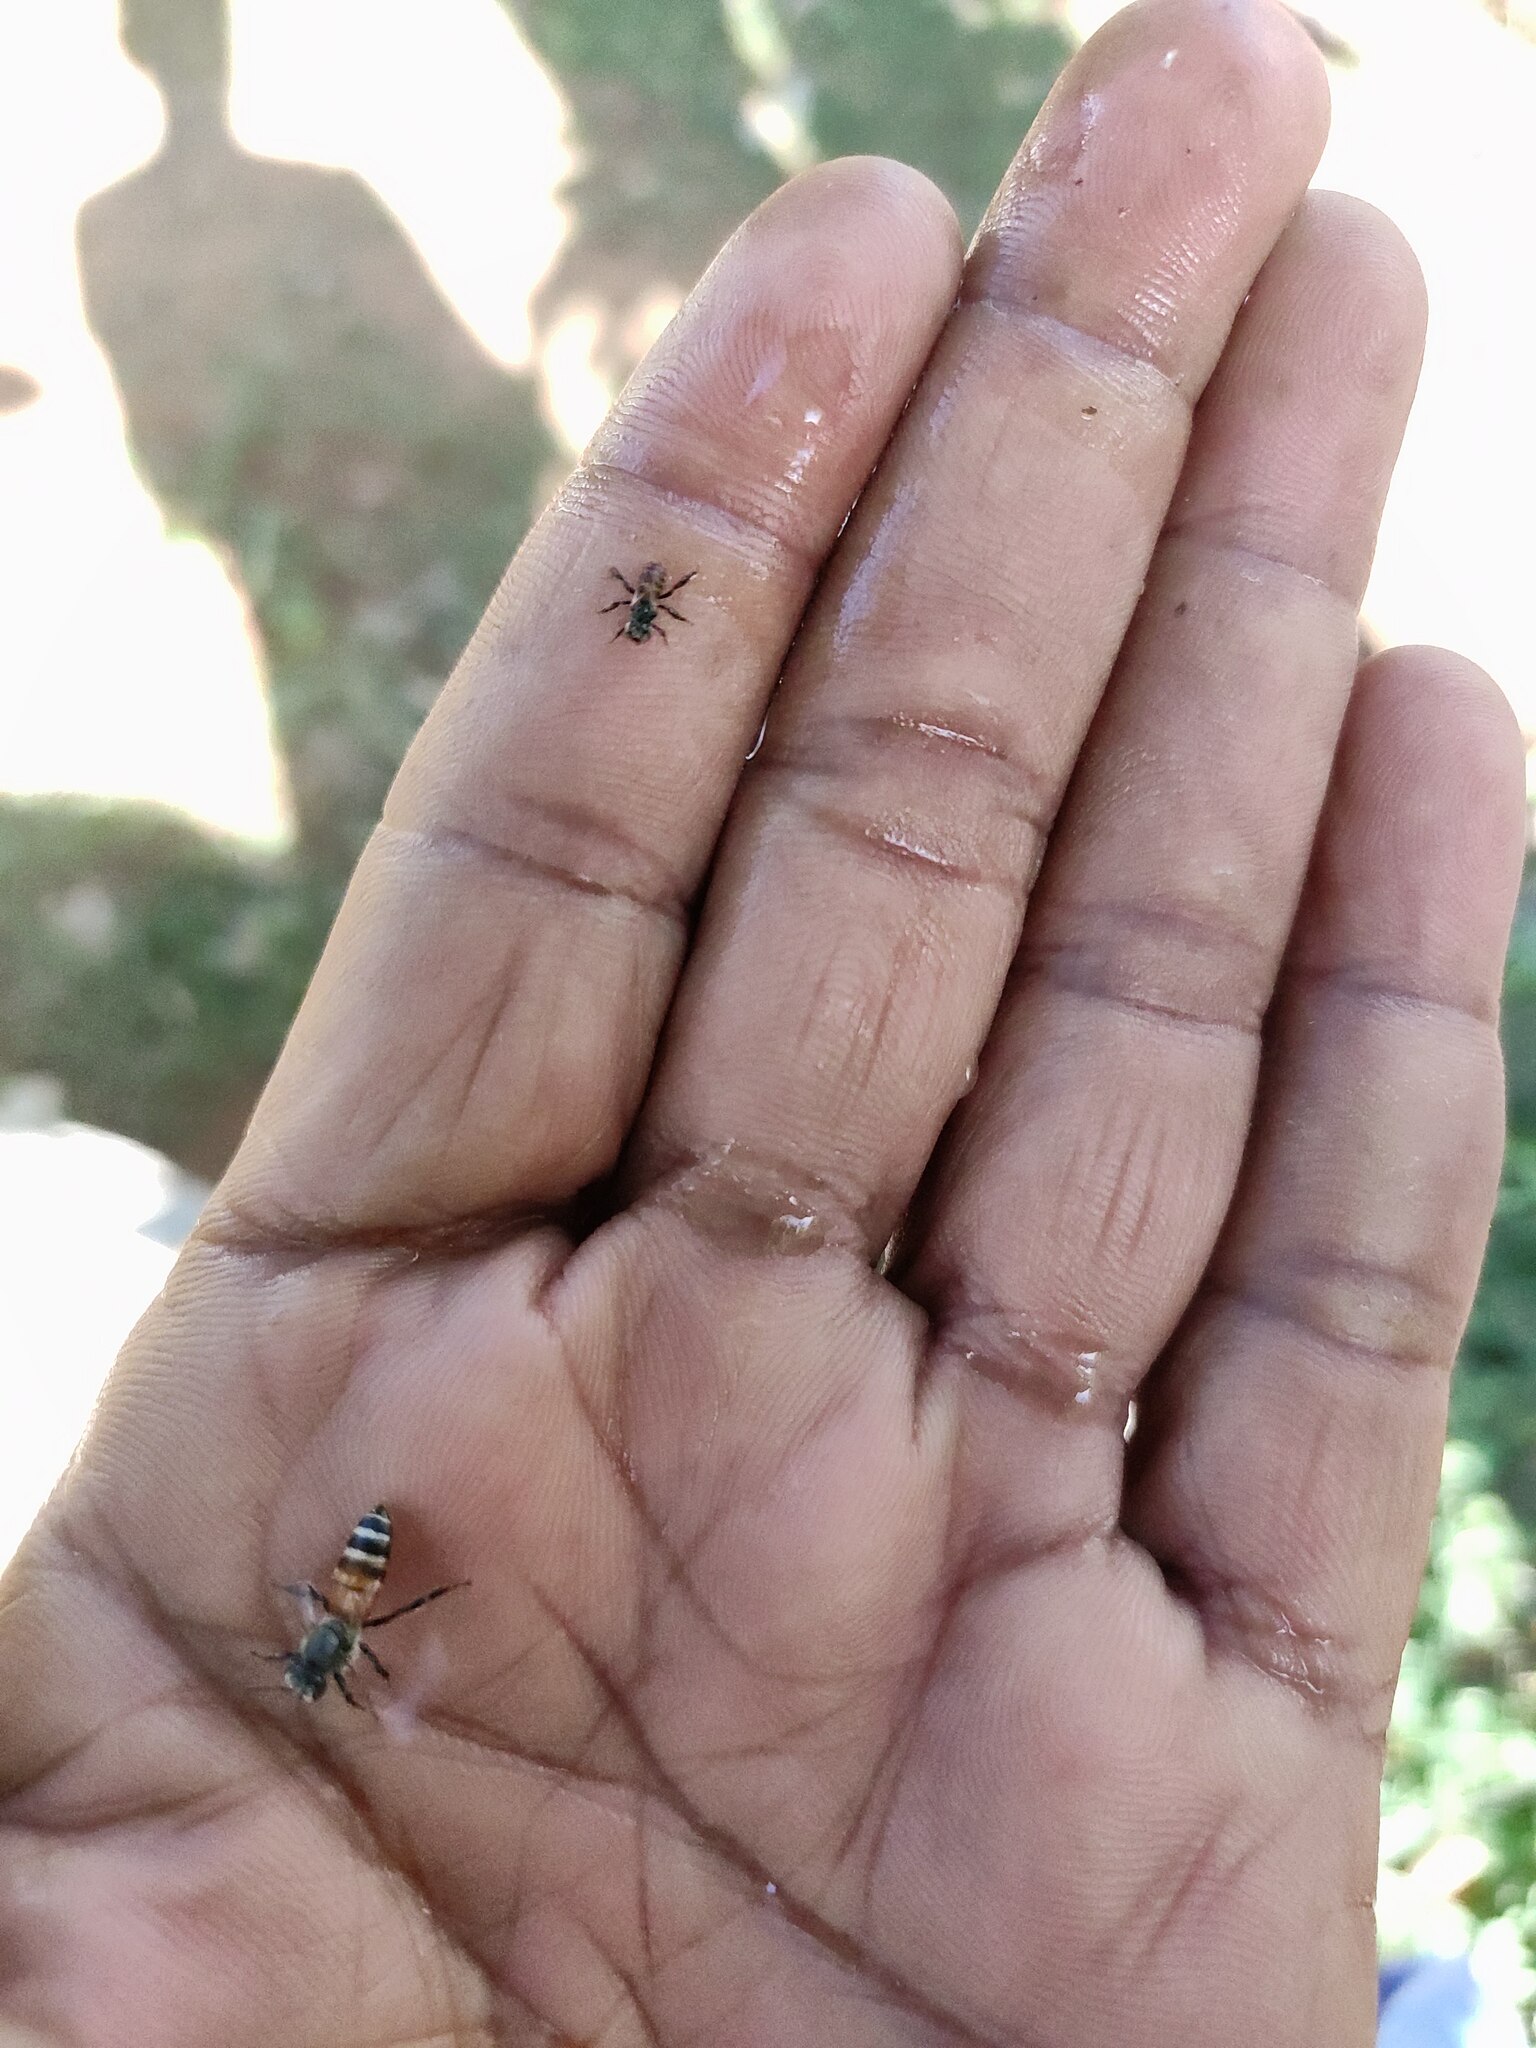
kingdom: Animalia
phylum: Arthropoda
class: Insecta
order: Hymenoptera
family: Apidae
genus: Apis
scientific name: Apis florea
